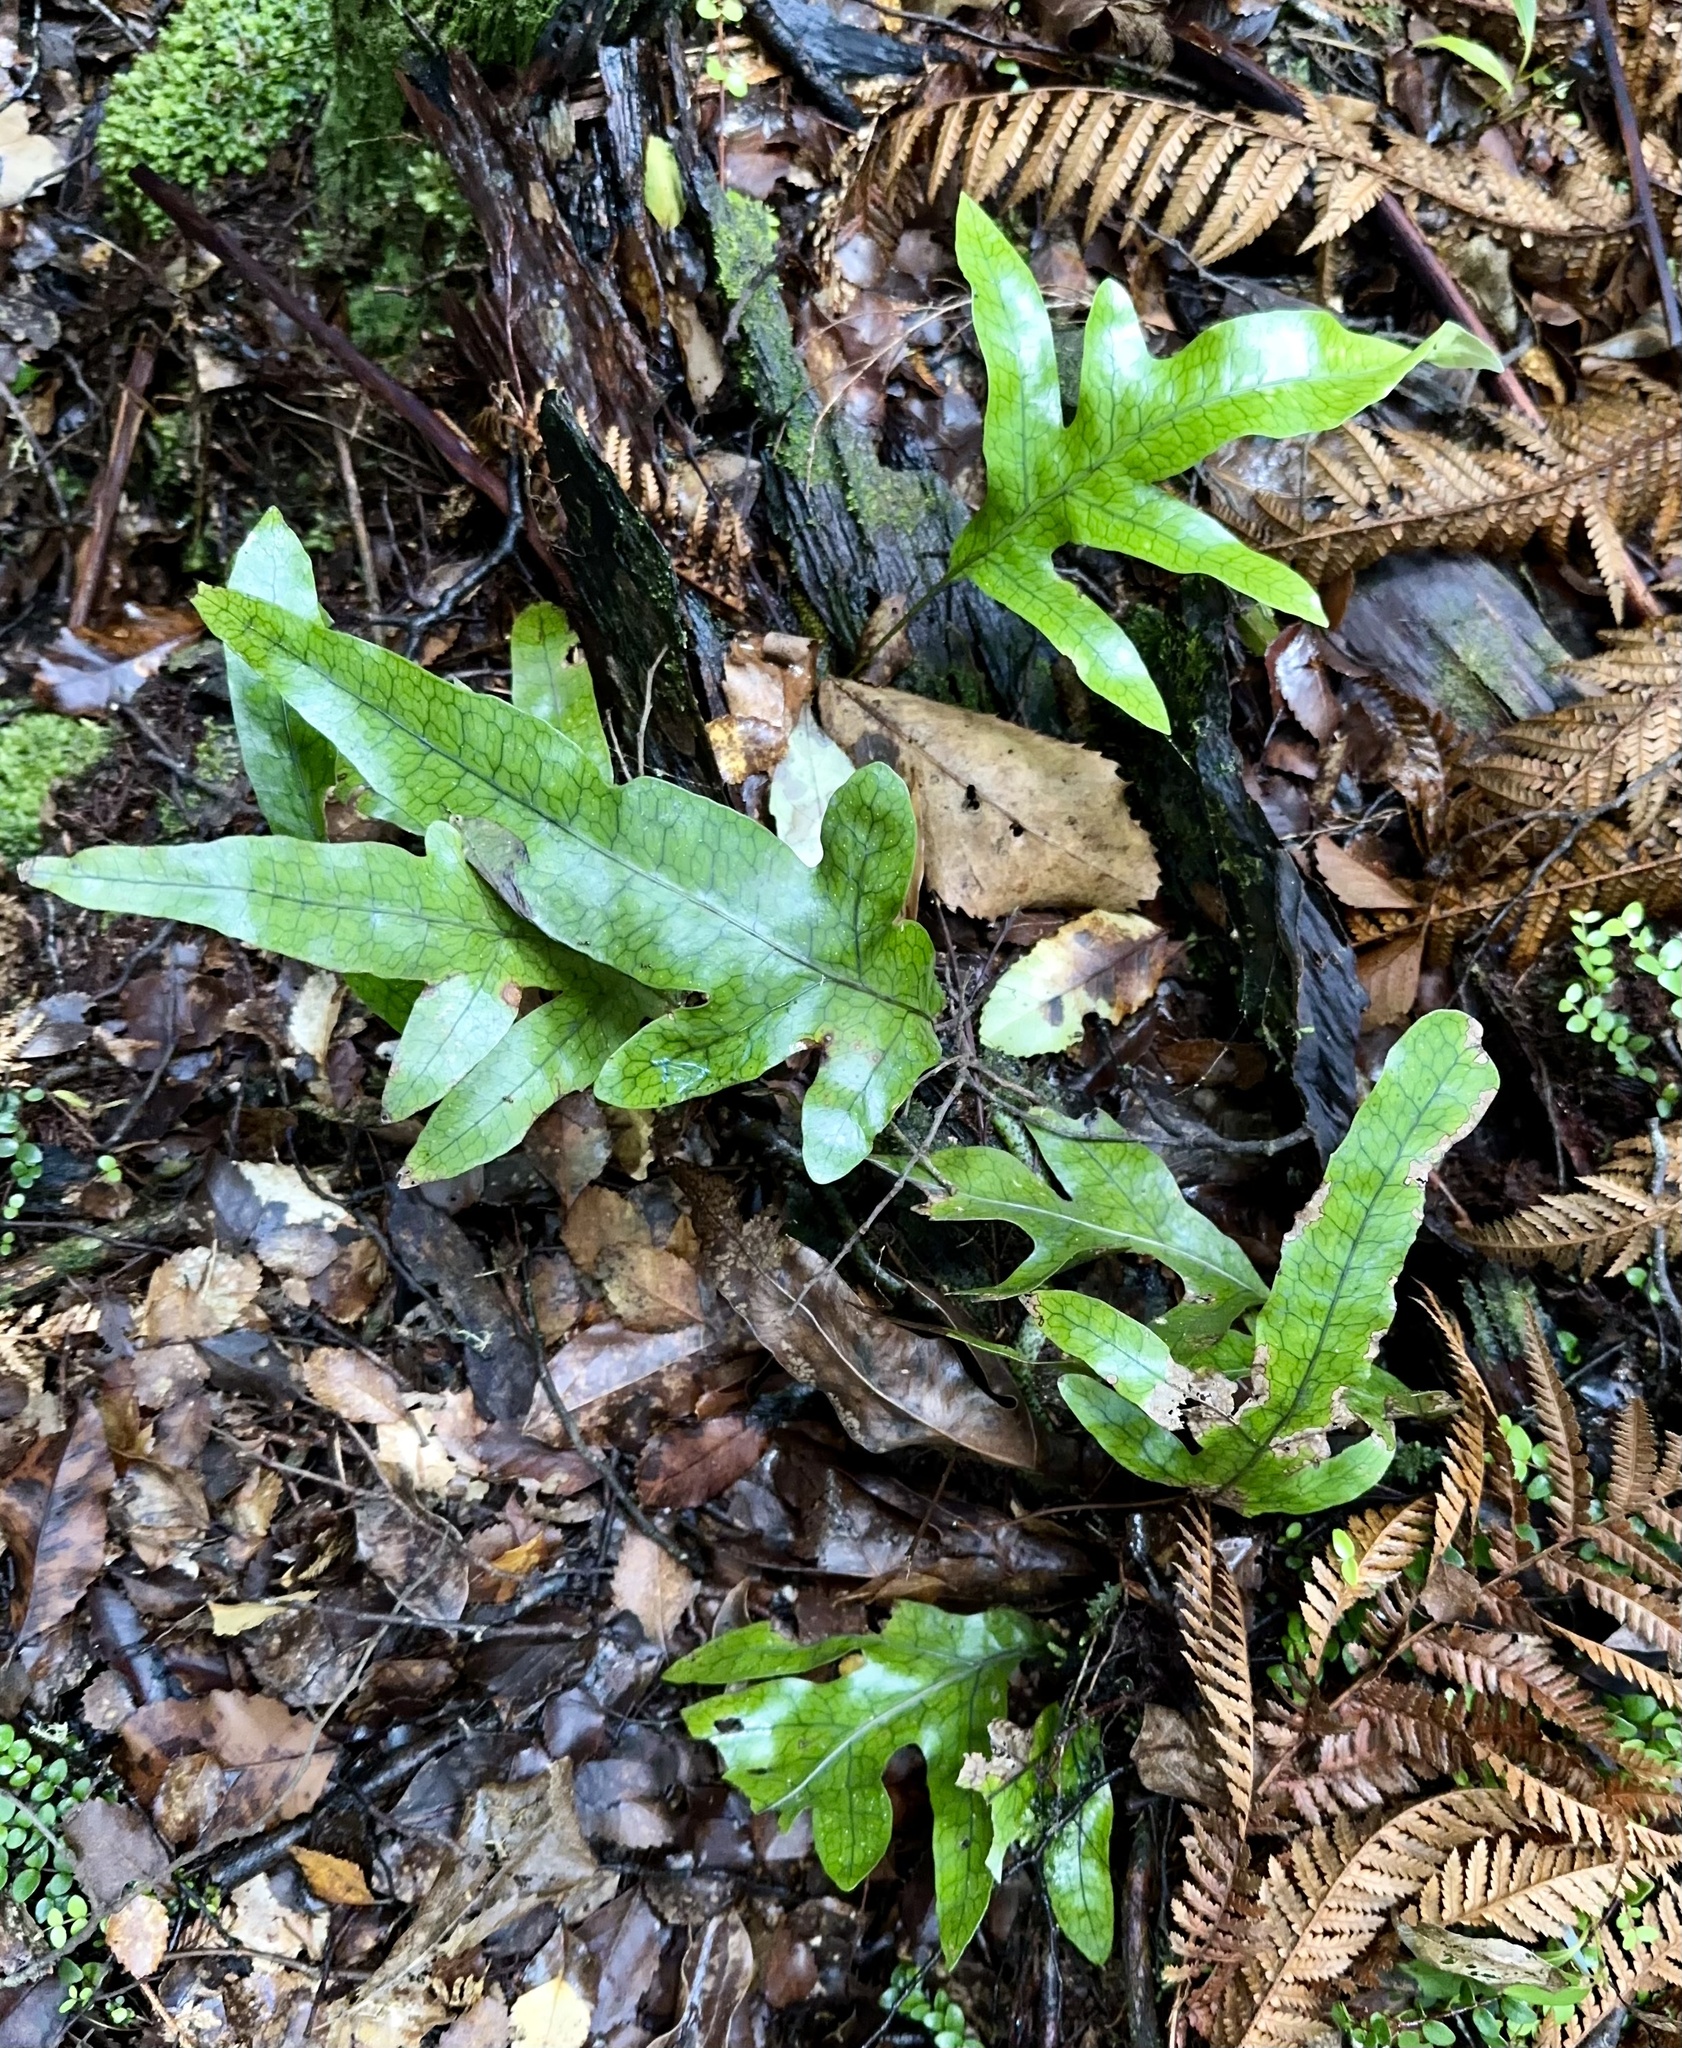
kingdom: Plantae
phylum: Tracheophyta
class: Polypodiopsida
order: Polypodiales
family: Polypodiaceae
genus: Lecanopteris
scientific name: Lecanopteris pustulata
